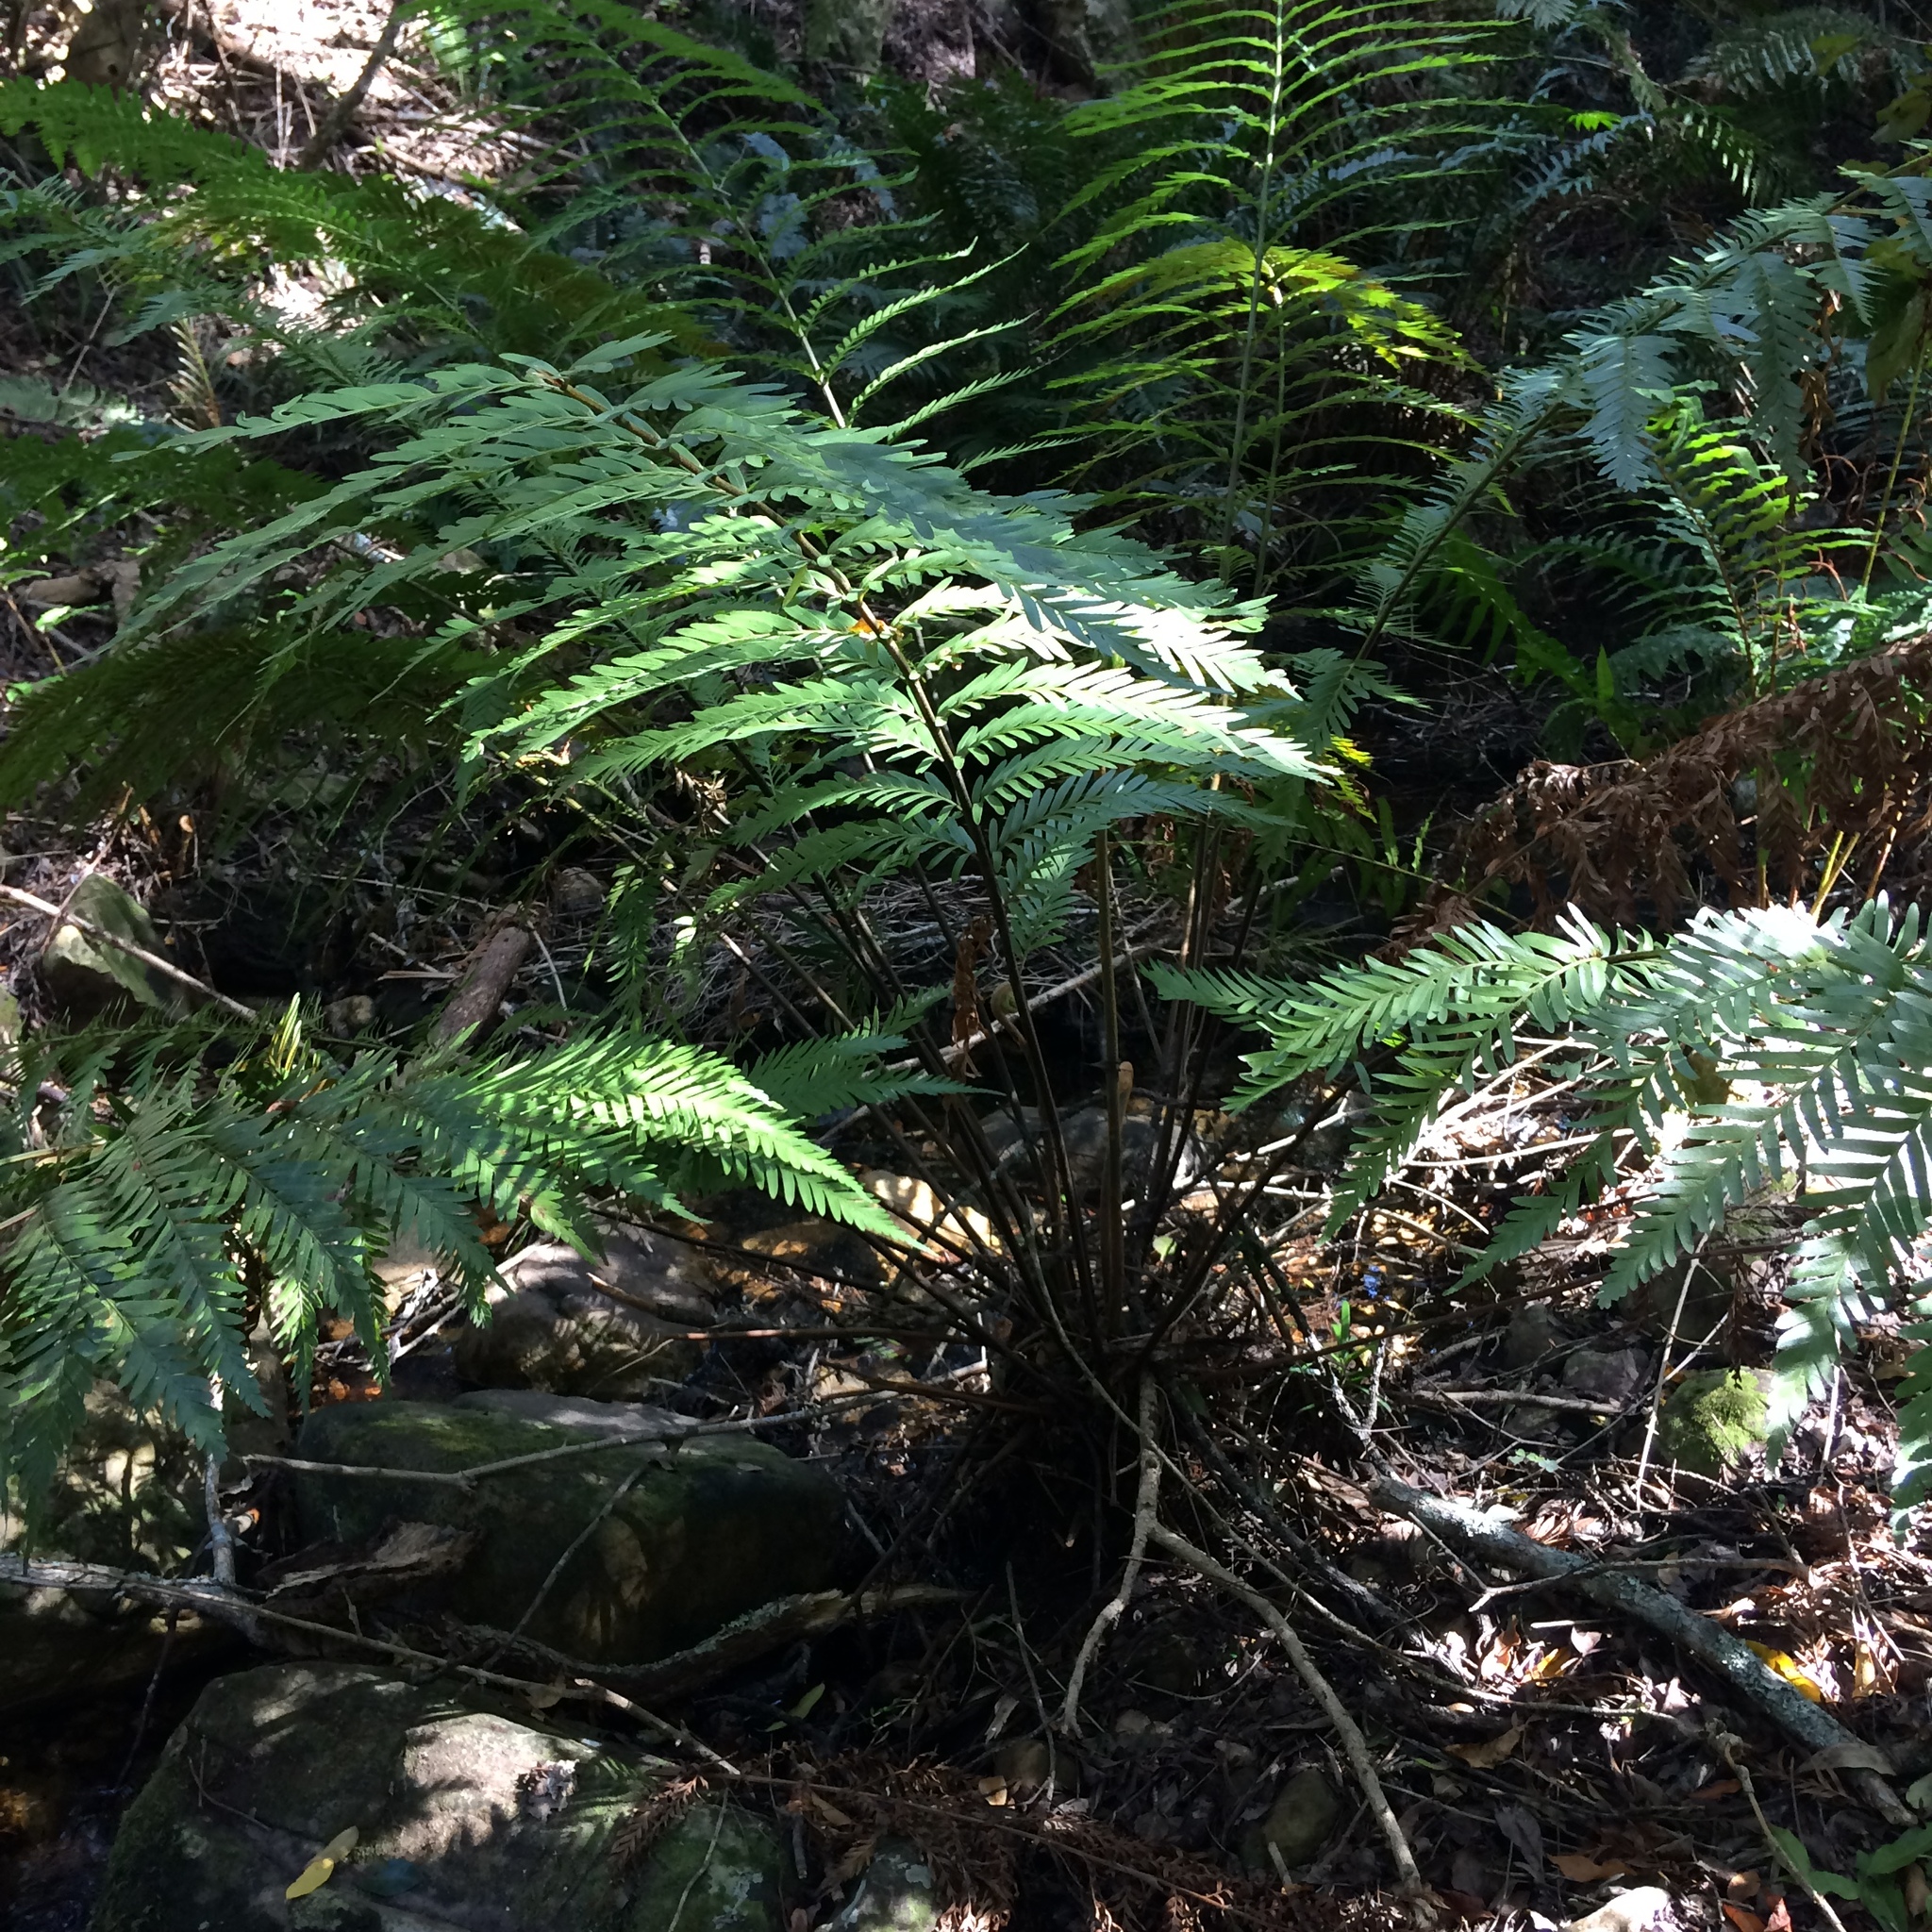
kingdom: Plantae
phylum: Tracheophyta
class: Polypodiopsida
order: Osmundales
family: Osmundaceae
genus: Todea
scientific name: Todea barbara
